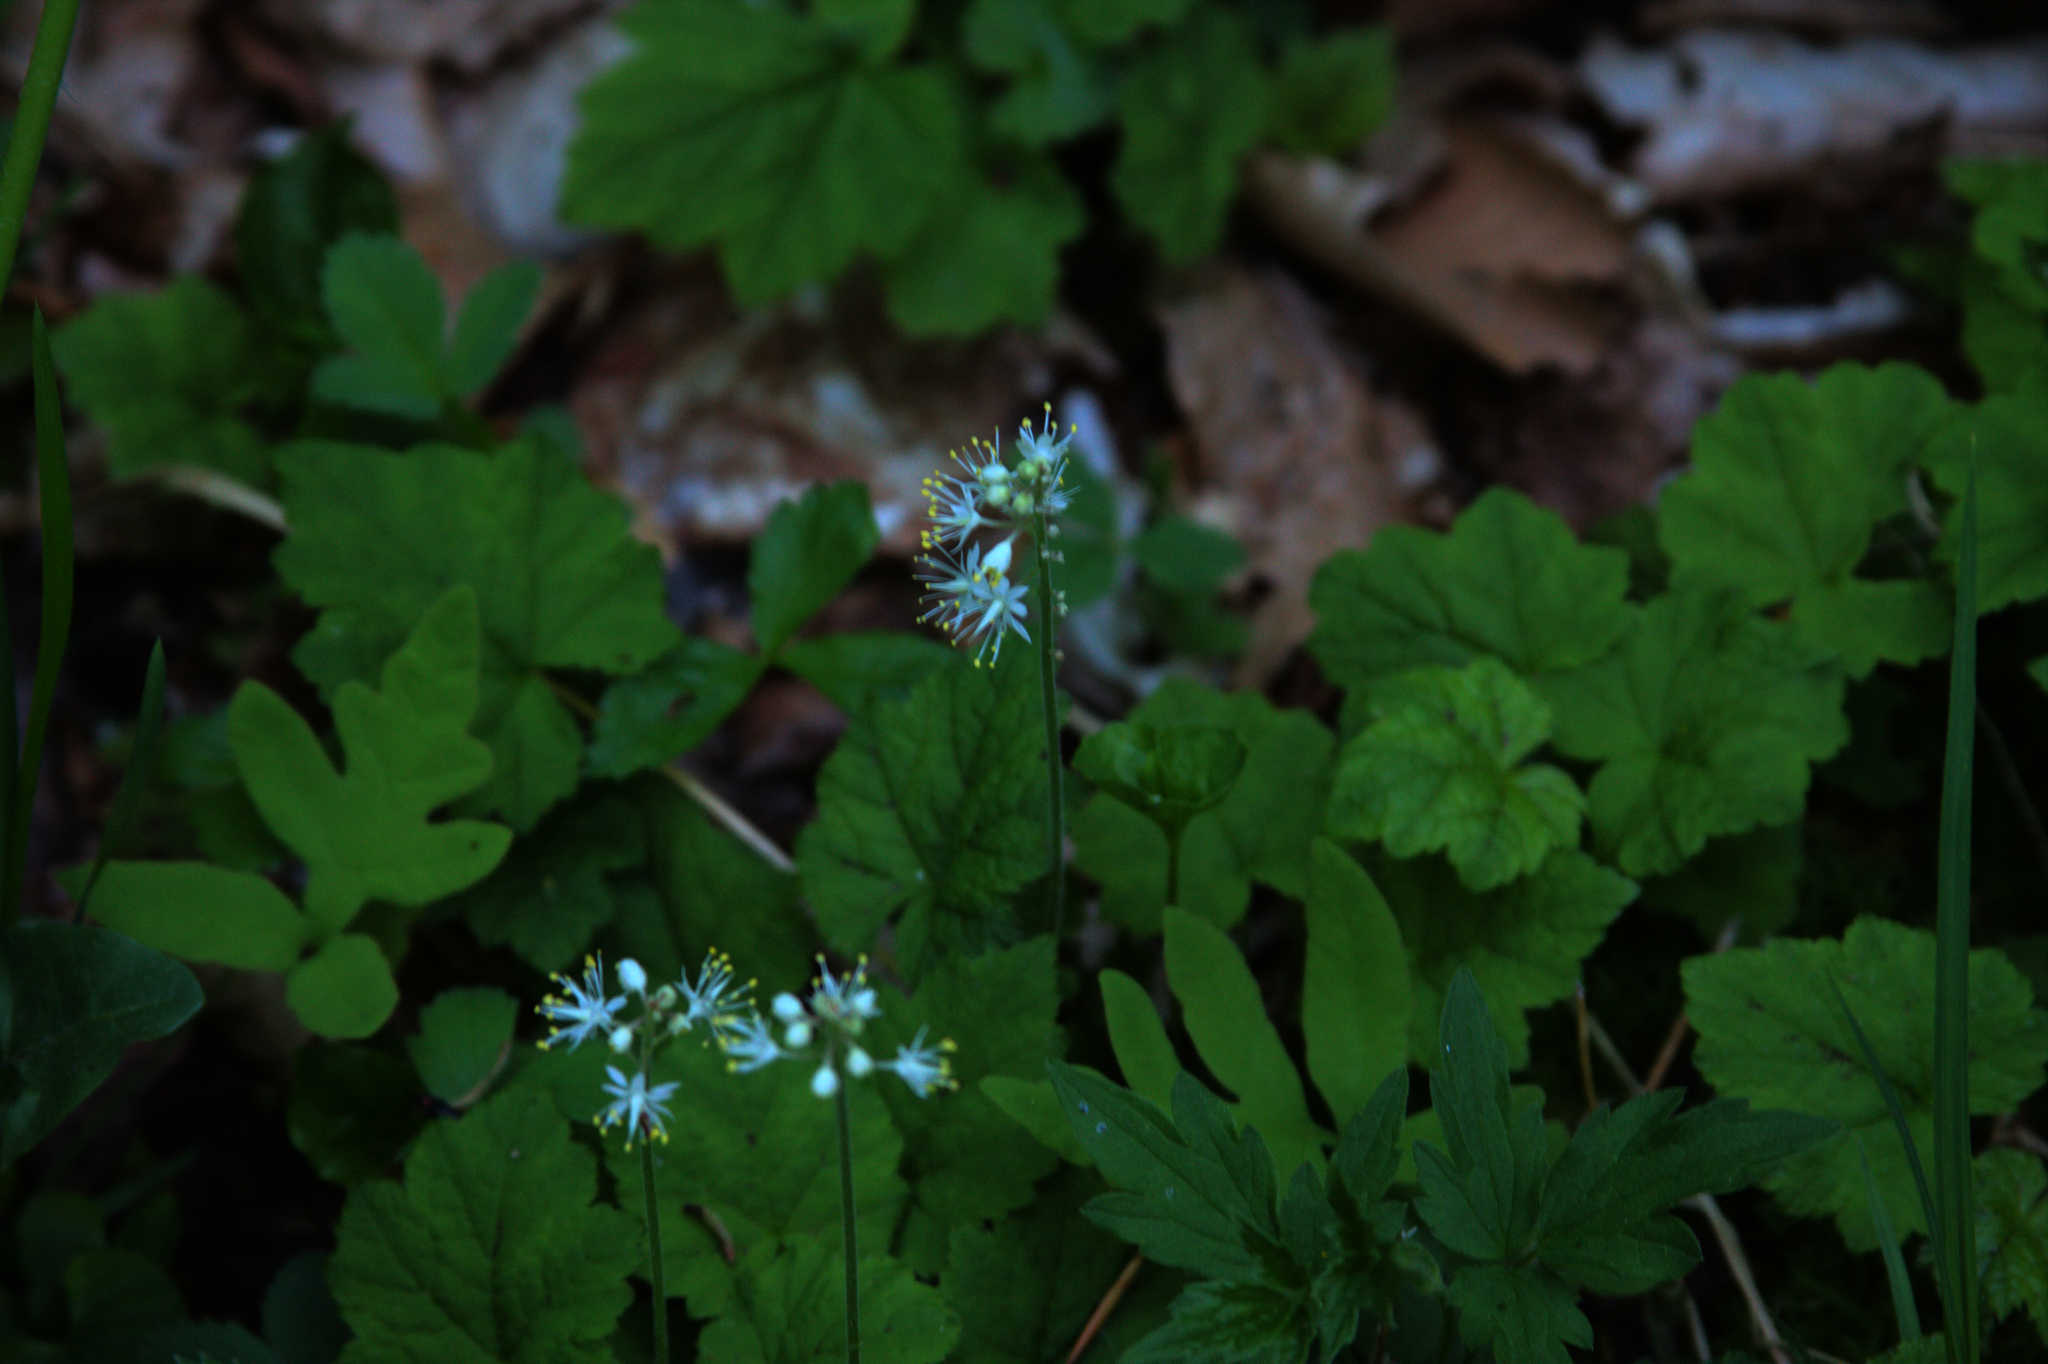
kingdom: Plantae
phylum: Tracheophyta
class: Magnoliopsida
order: Saxifragales
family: Saxifragaceae
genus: Tiarella
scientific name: Tiarella stolonifera
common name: Stoloniferous foamflower
